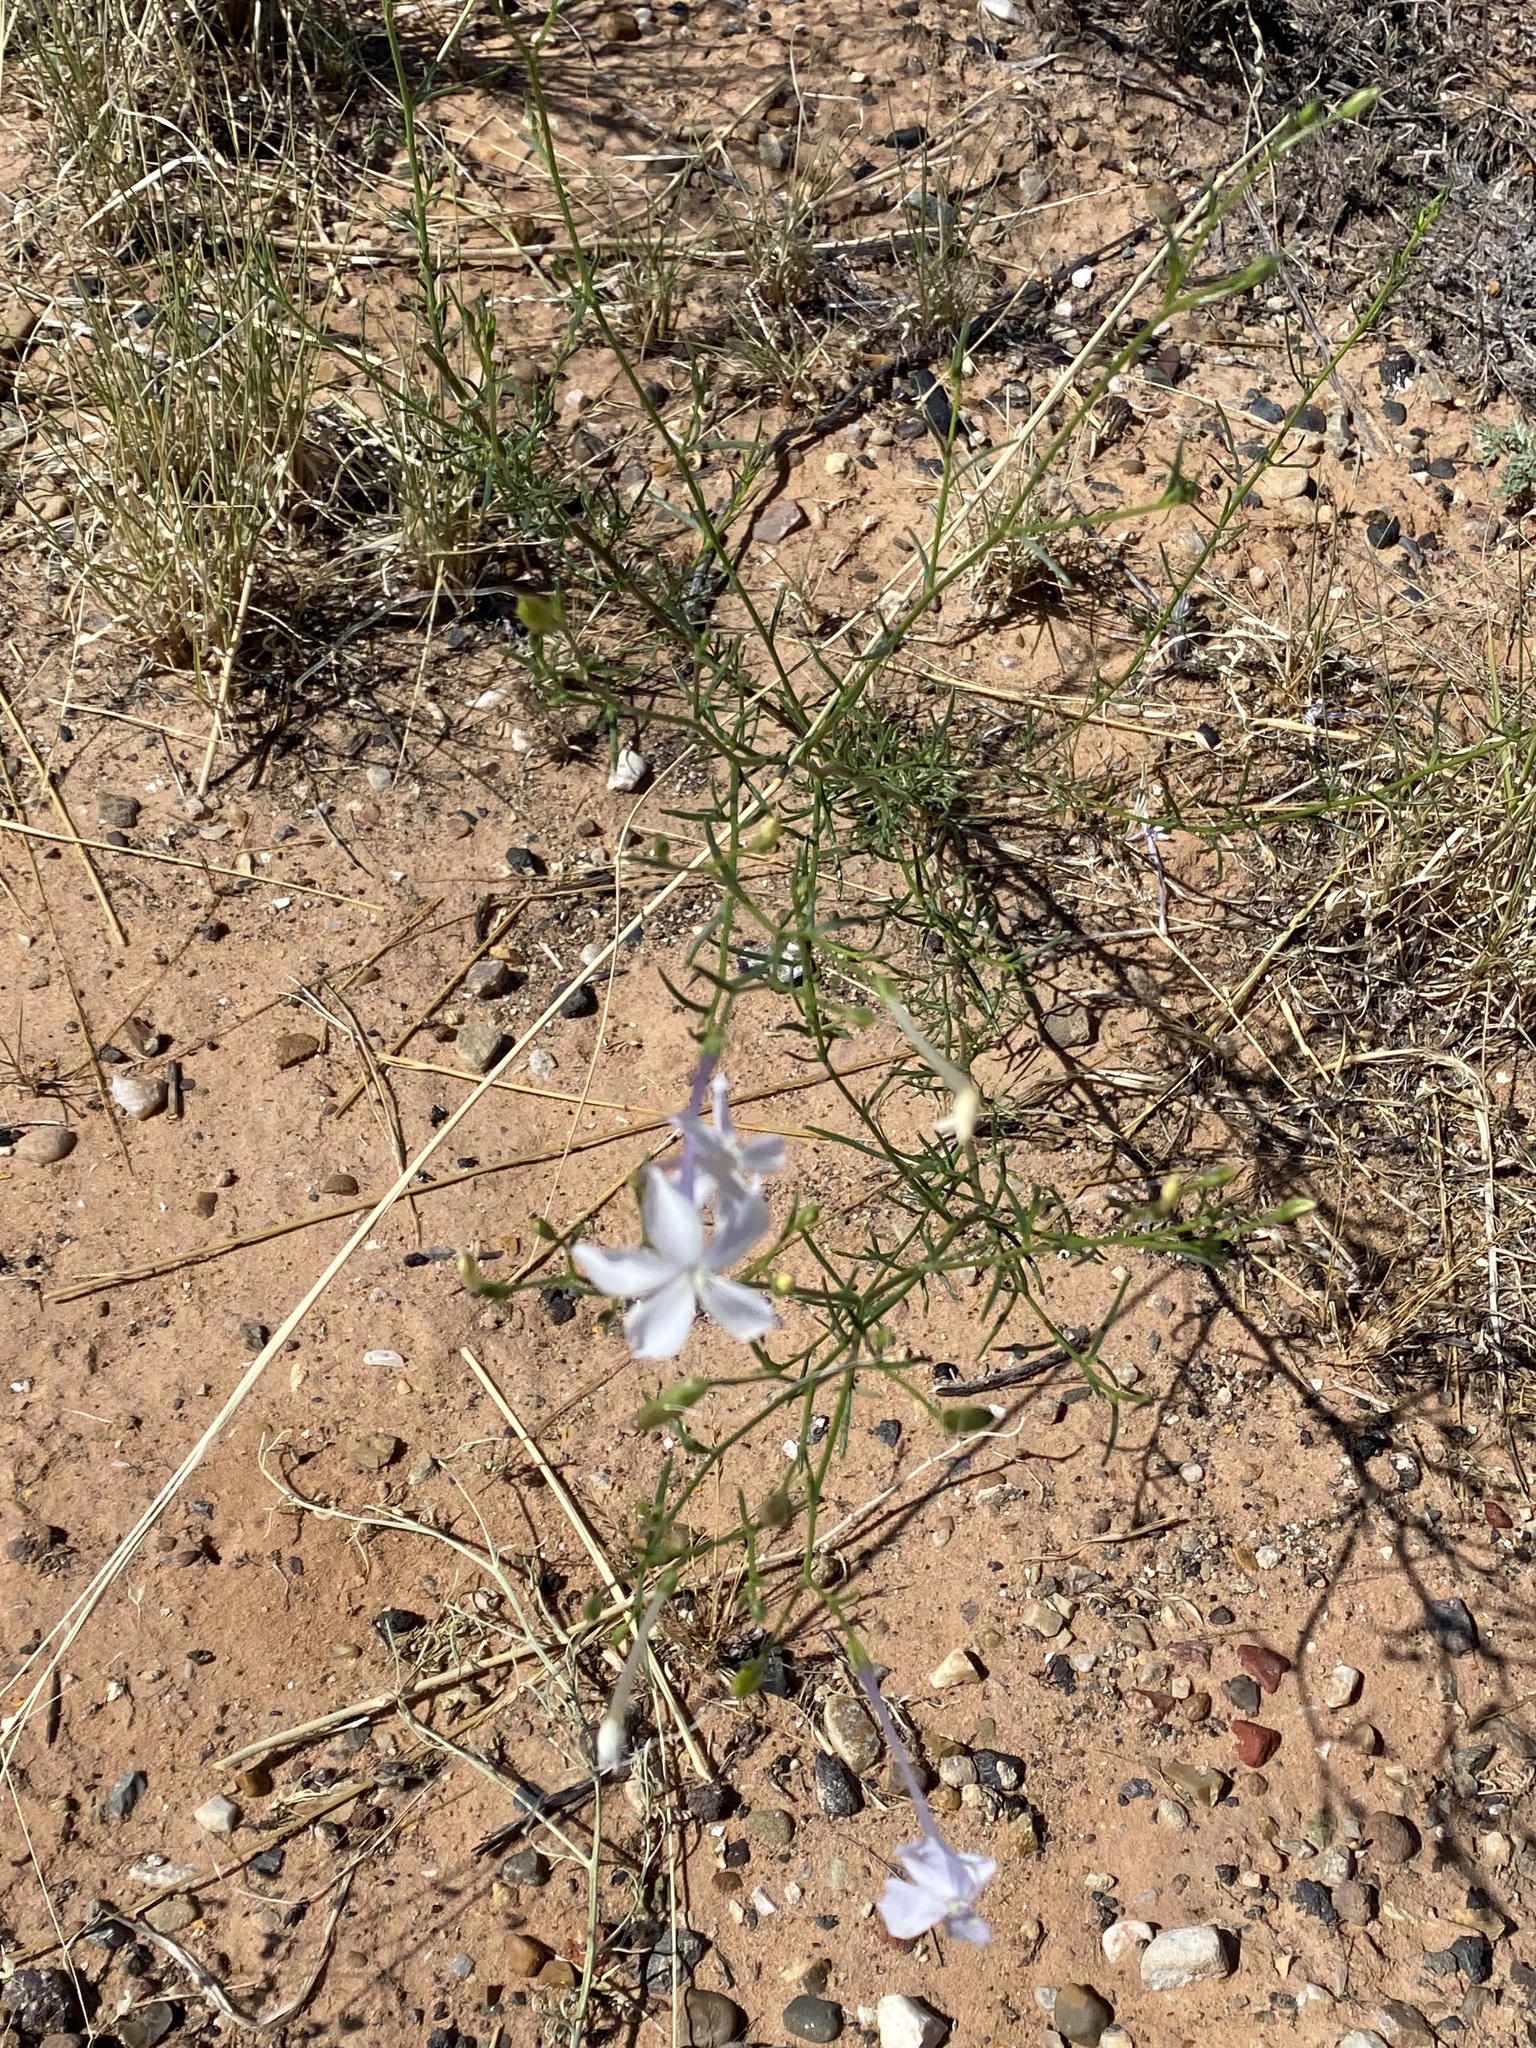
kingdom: Plantae
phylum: Tracheophyta
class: Magnoliopsida
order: Ericales
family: Polemoniaceae
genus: Ipomopsis
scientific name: Ipomopsis longiflora
